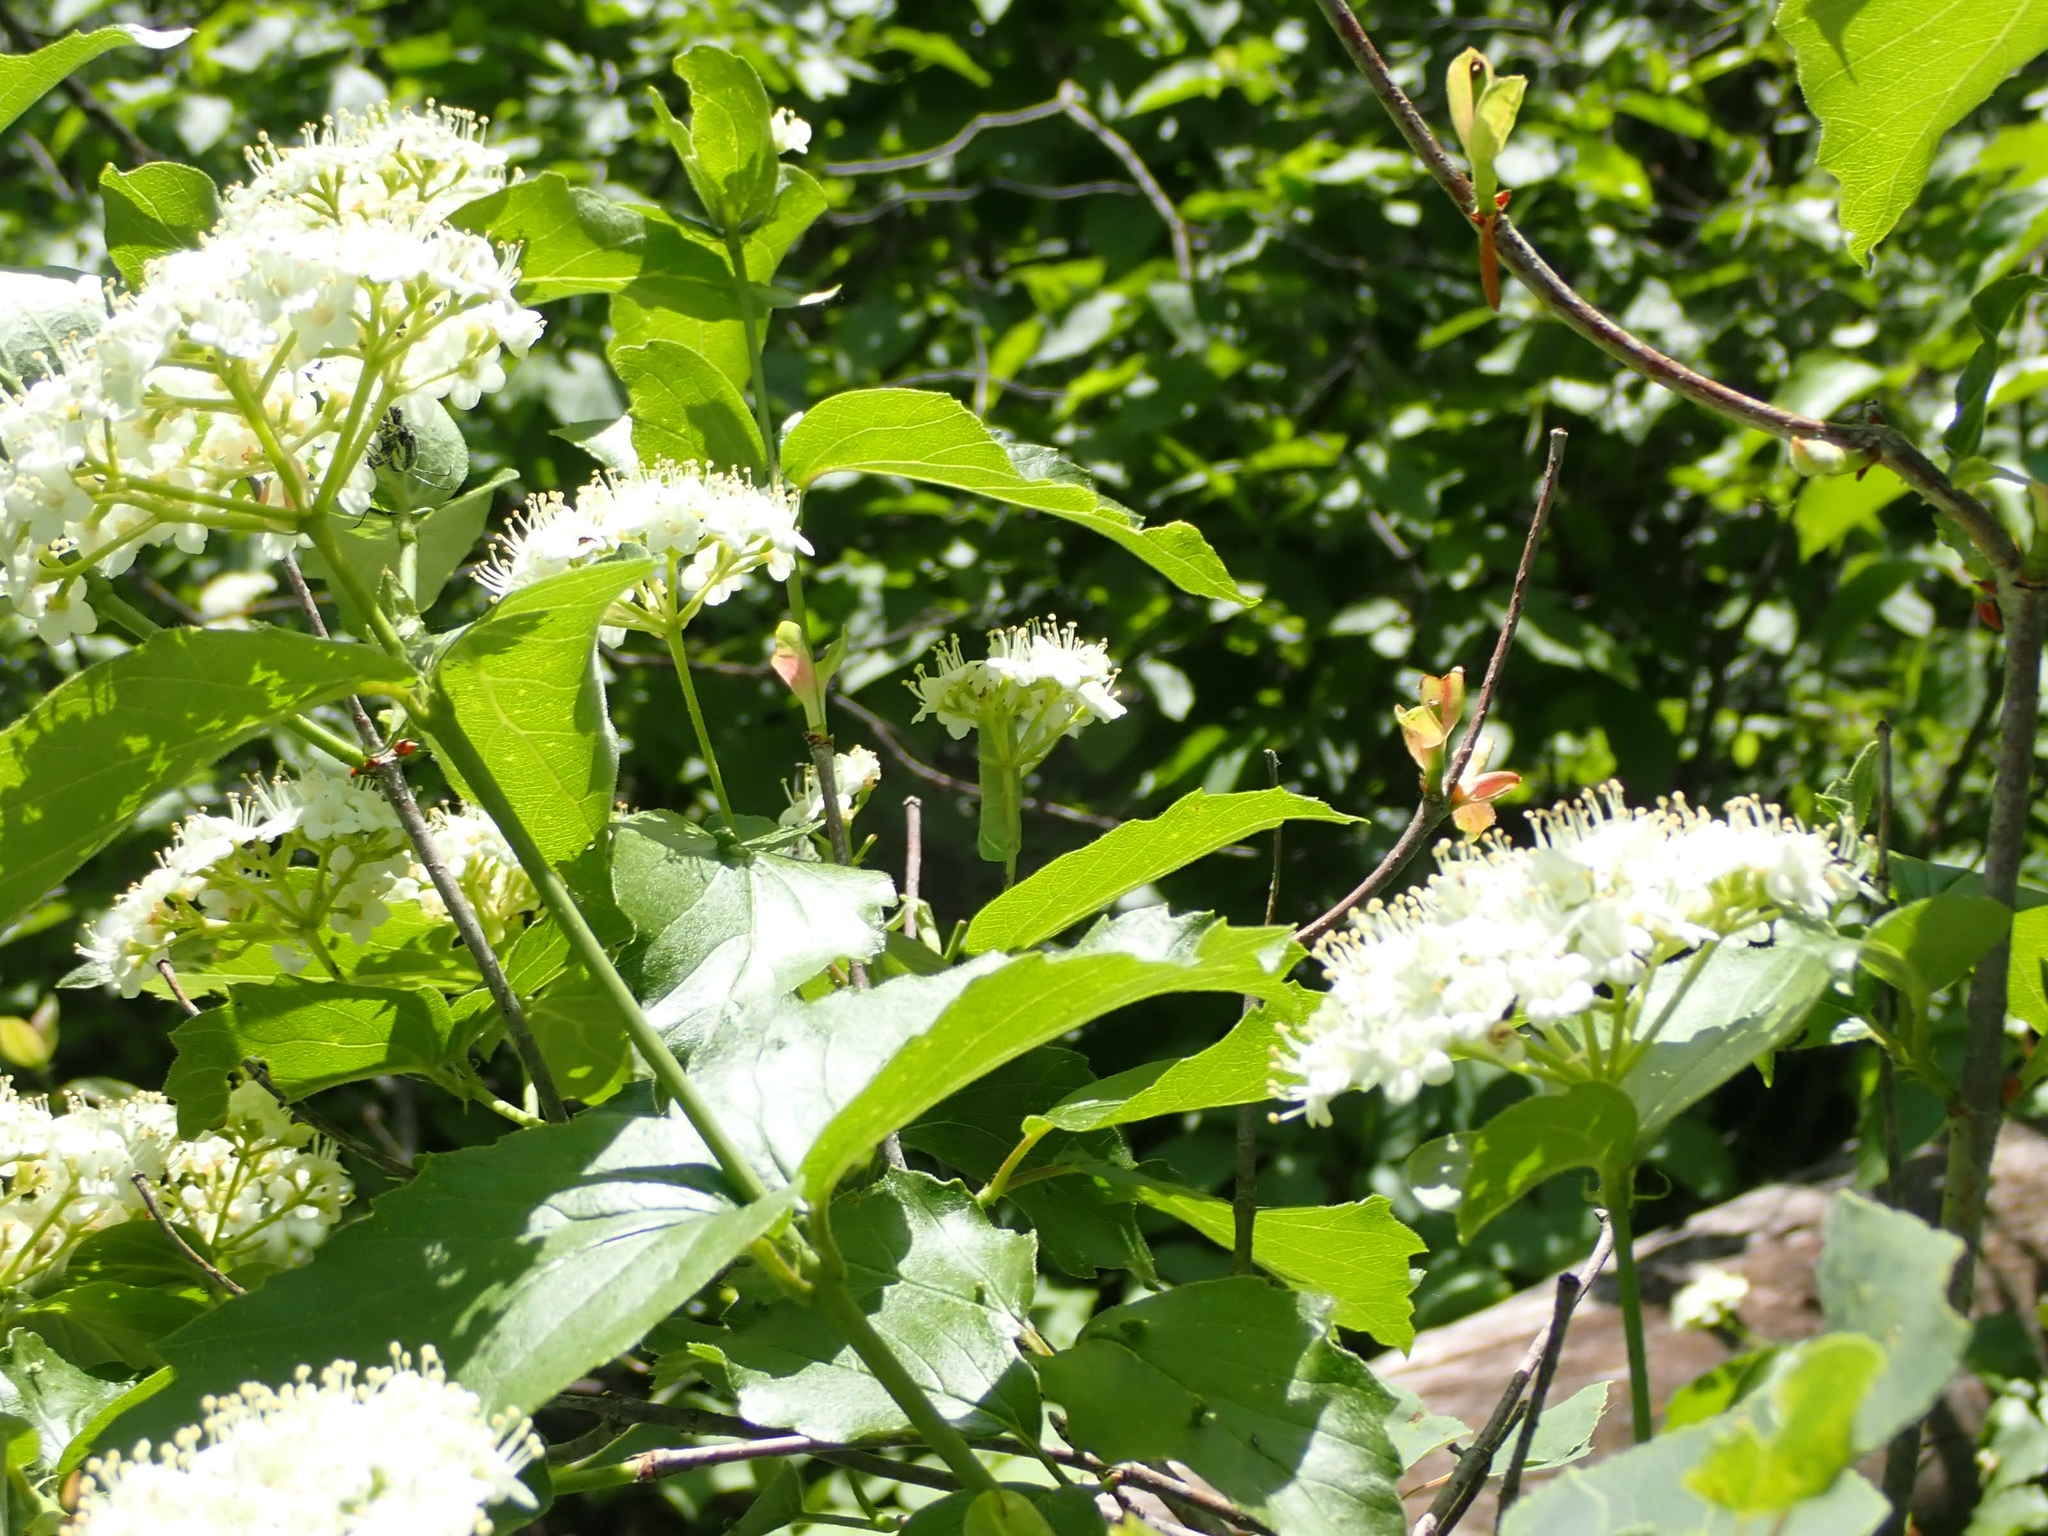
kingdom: Plantae
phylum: Tracheophyta
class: Magnoliopsida
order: Dipsacales
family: Viburnaceae
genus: Viburnum
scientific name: Viburnum rafinesqueanum
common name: Downy arrow-wood
